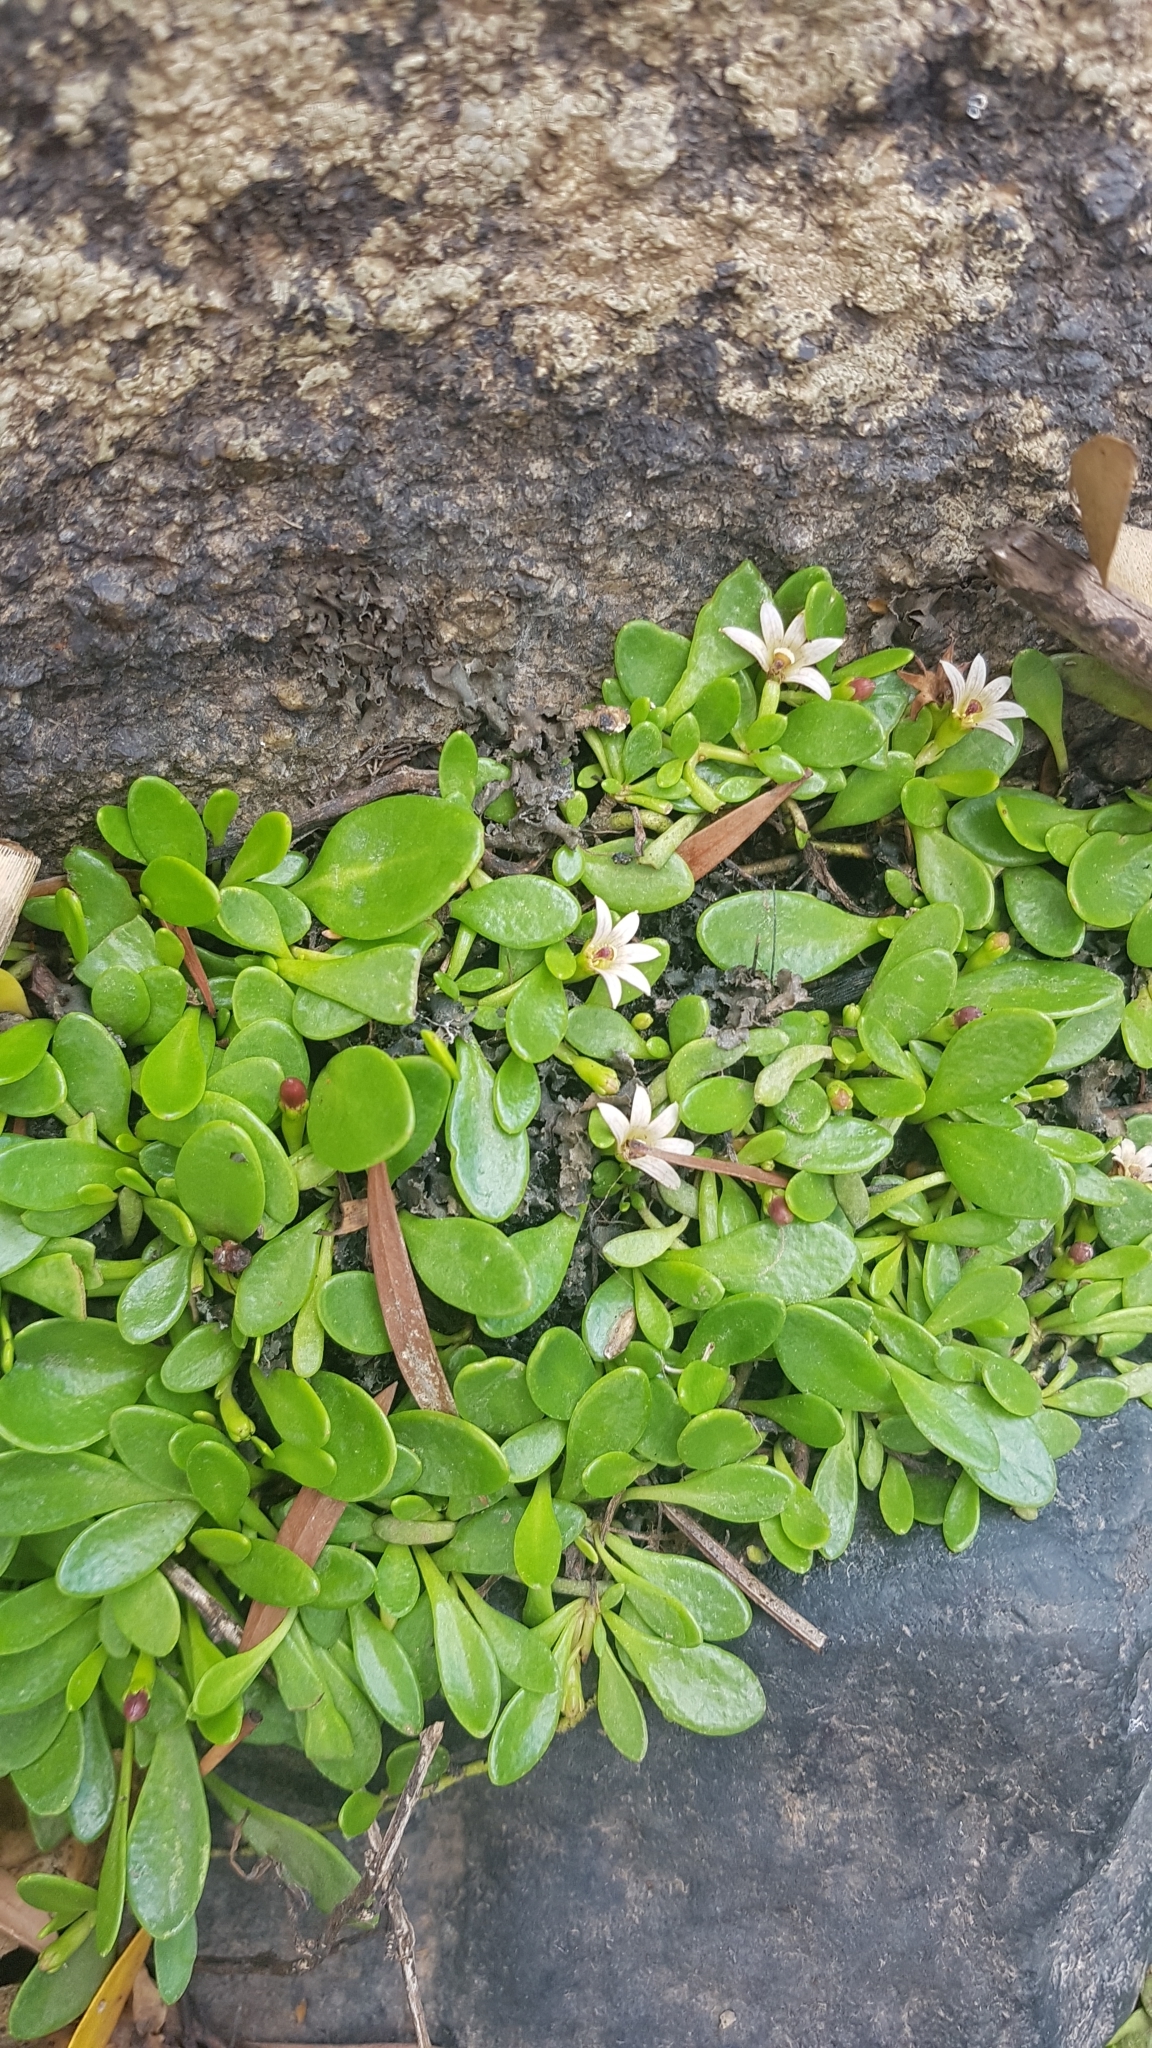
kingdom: Plantae
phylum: Tracheophyta
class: Magnoliopsida
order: Asterales
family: Goodeniaceae
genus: Goodenia
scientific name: Goodenia radicans
